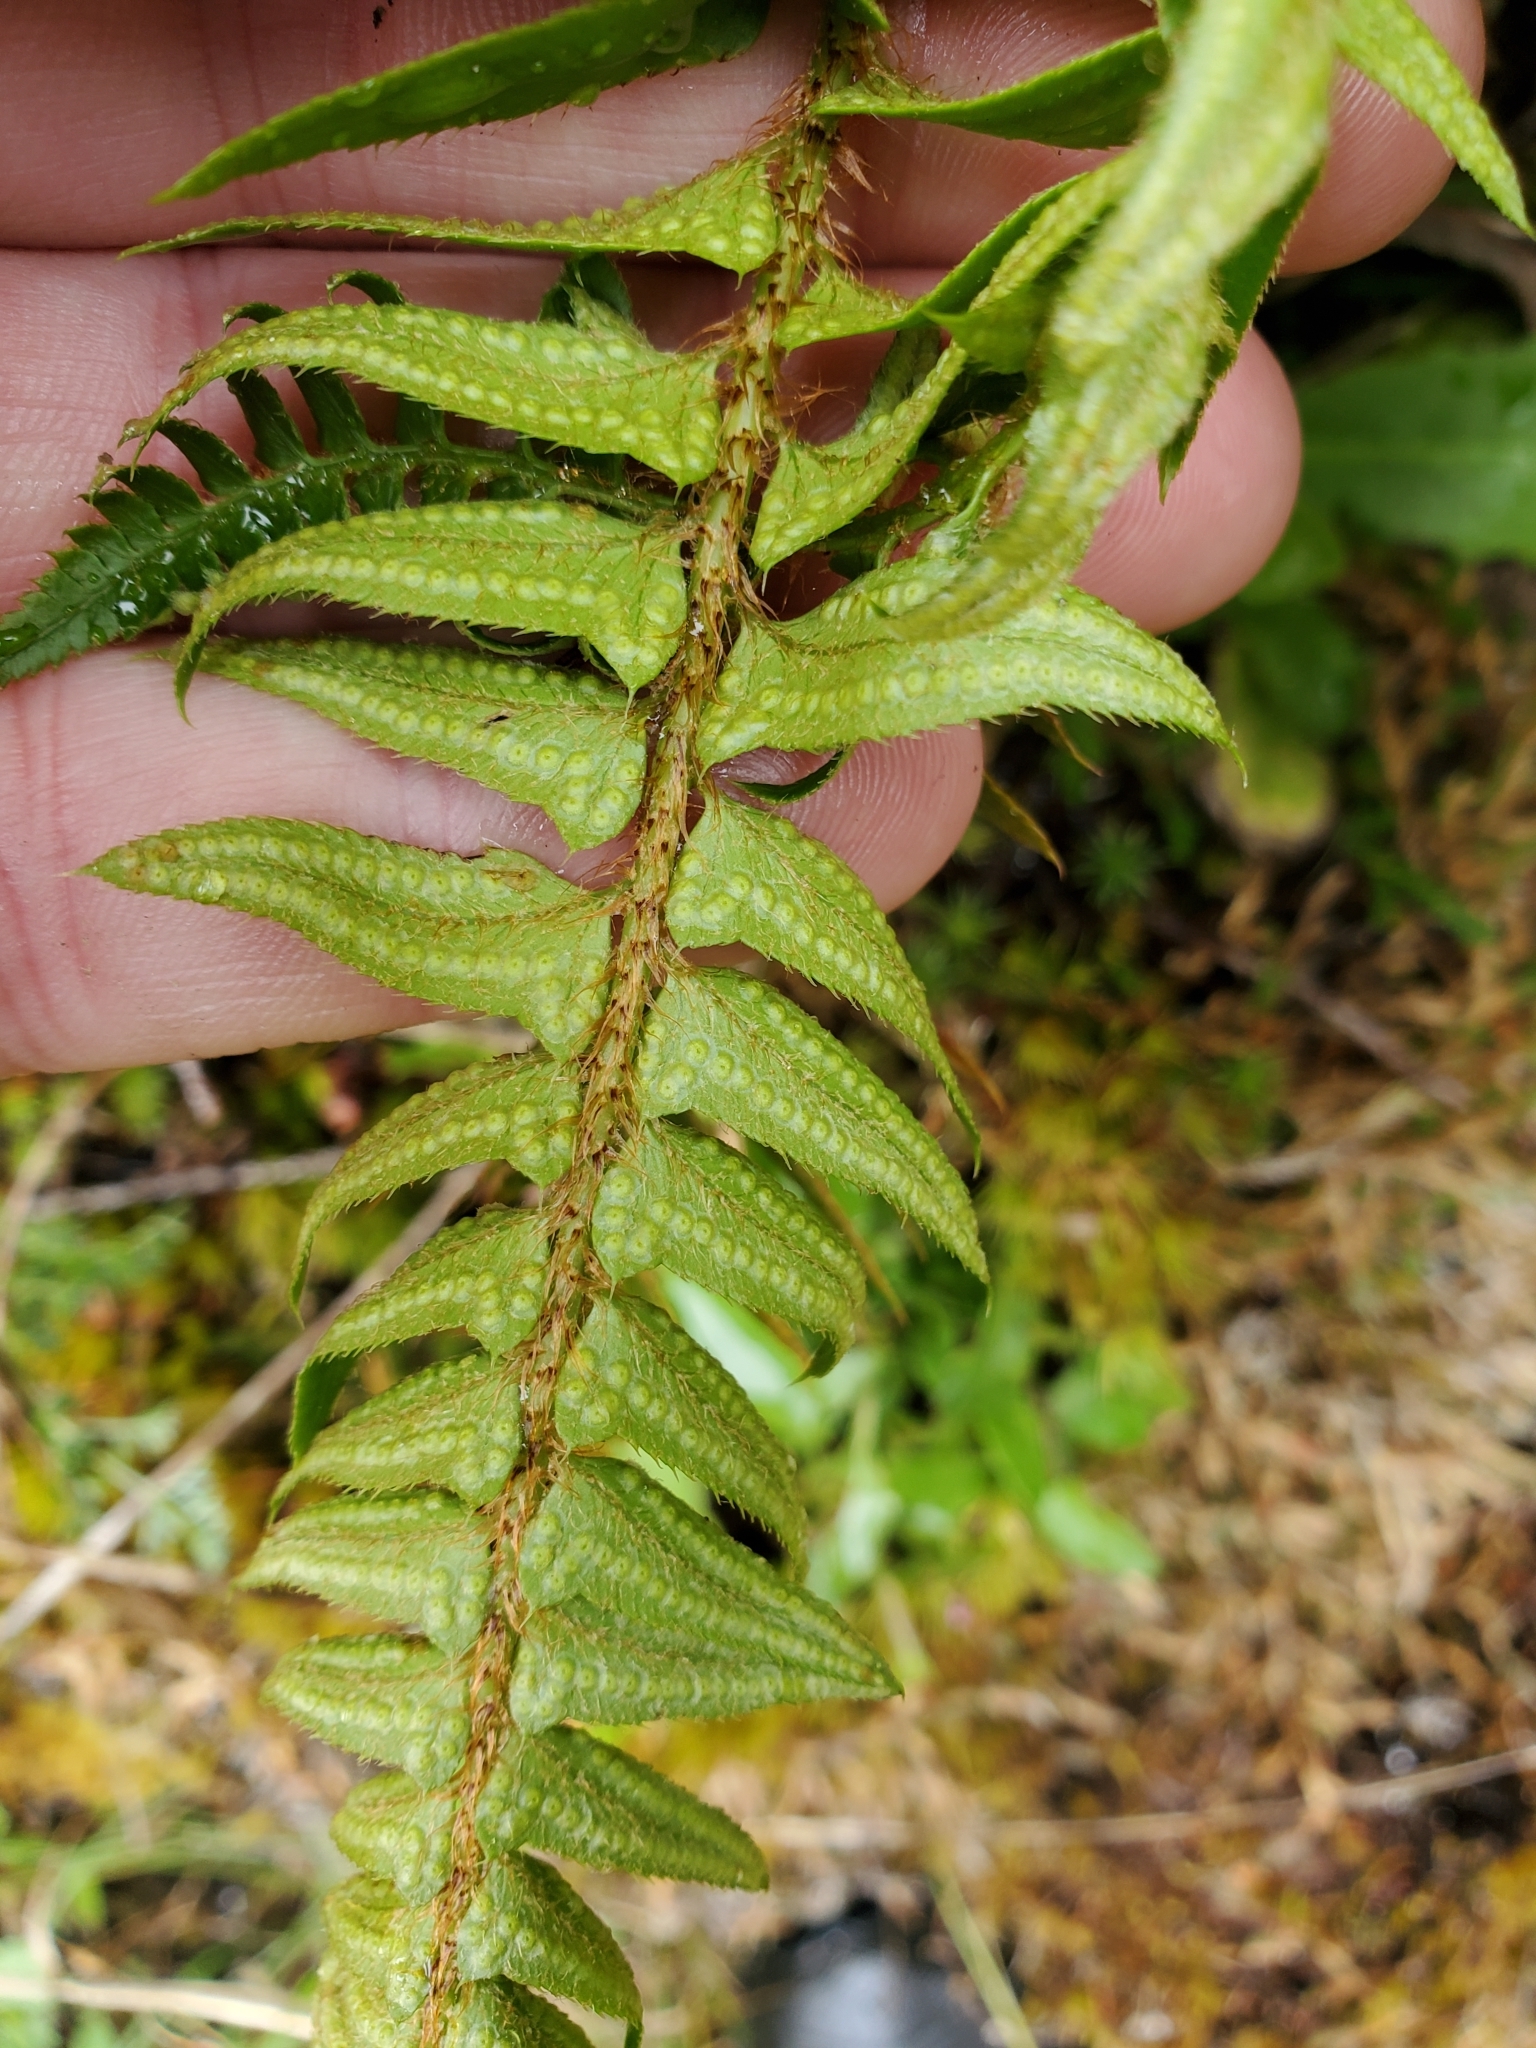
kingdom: Plantae
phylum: Tracheophyta
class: Polypodiopsida
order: Polypodiales
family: Dryopteridaceae
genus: Polystichum
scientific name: Polystichum munitum
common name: Western sword-fern
